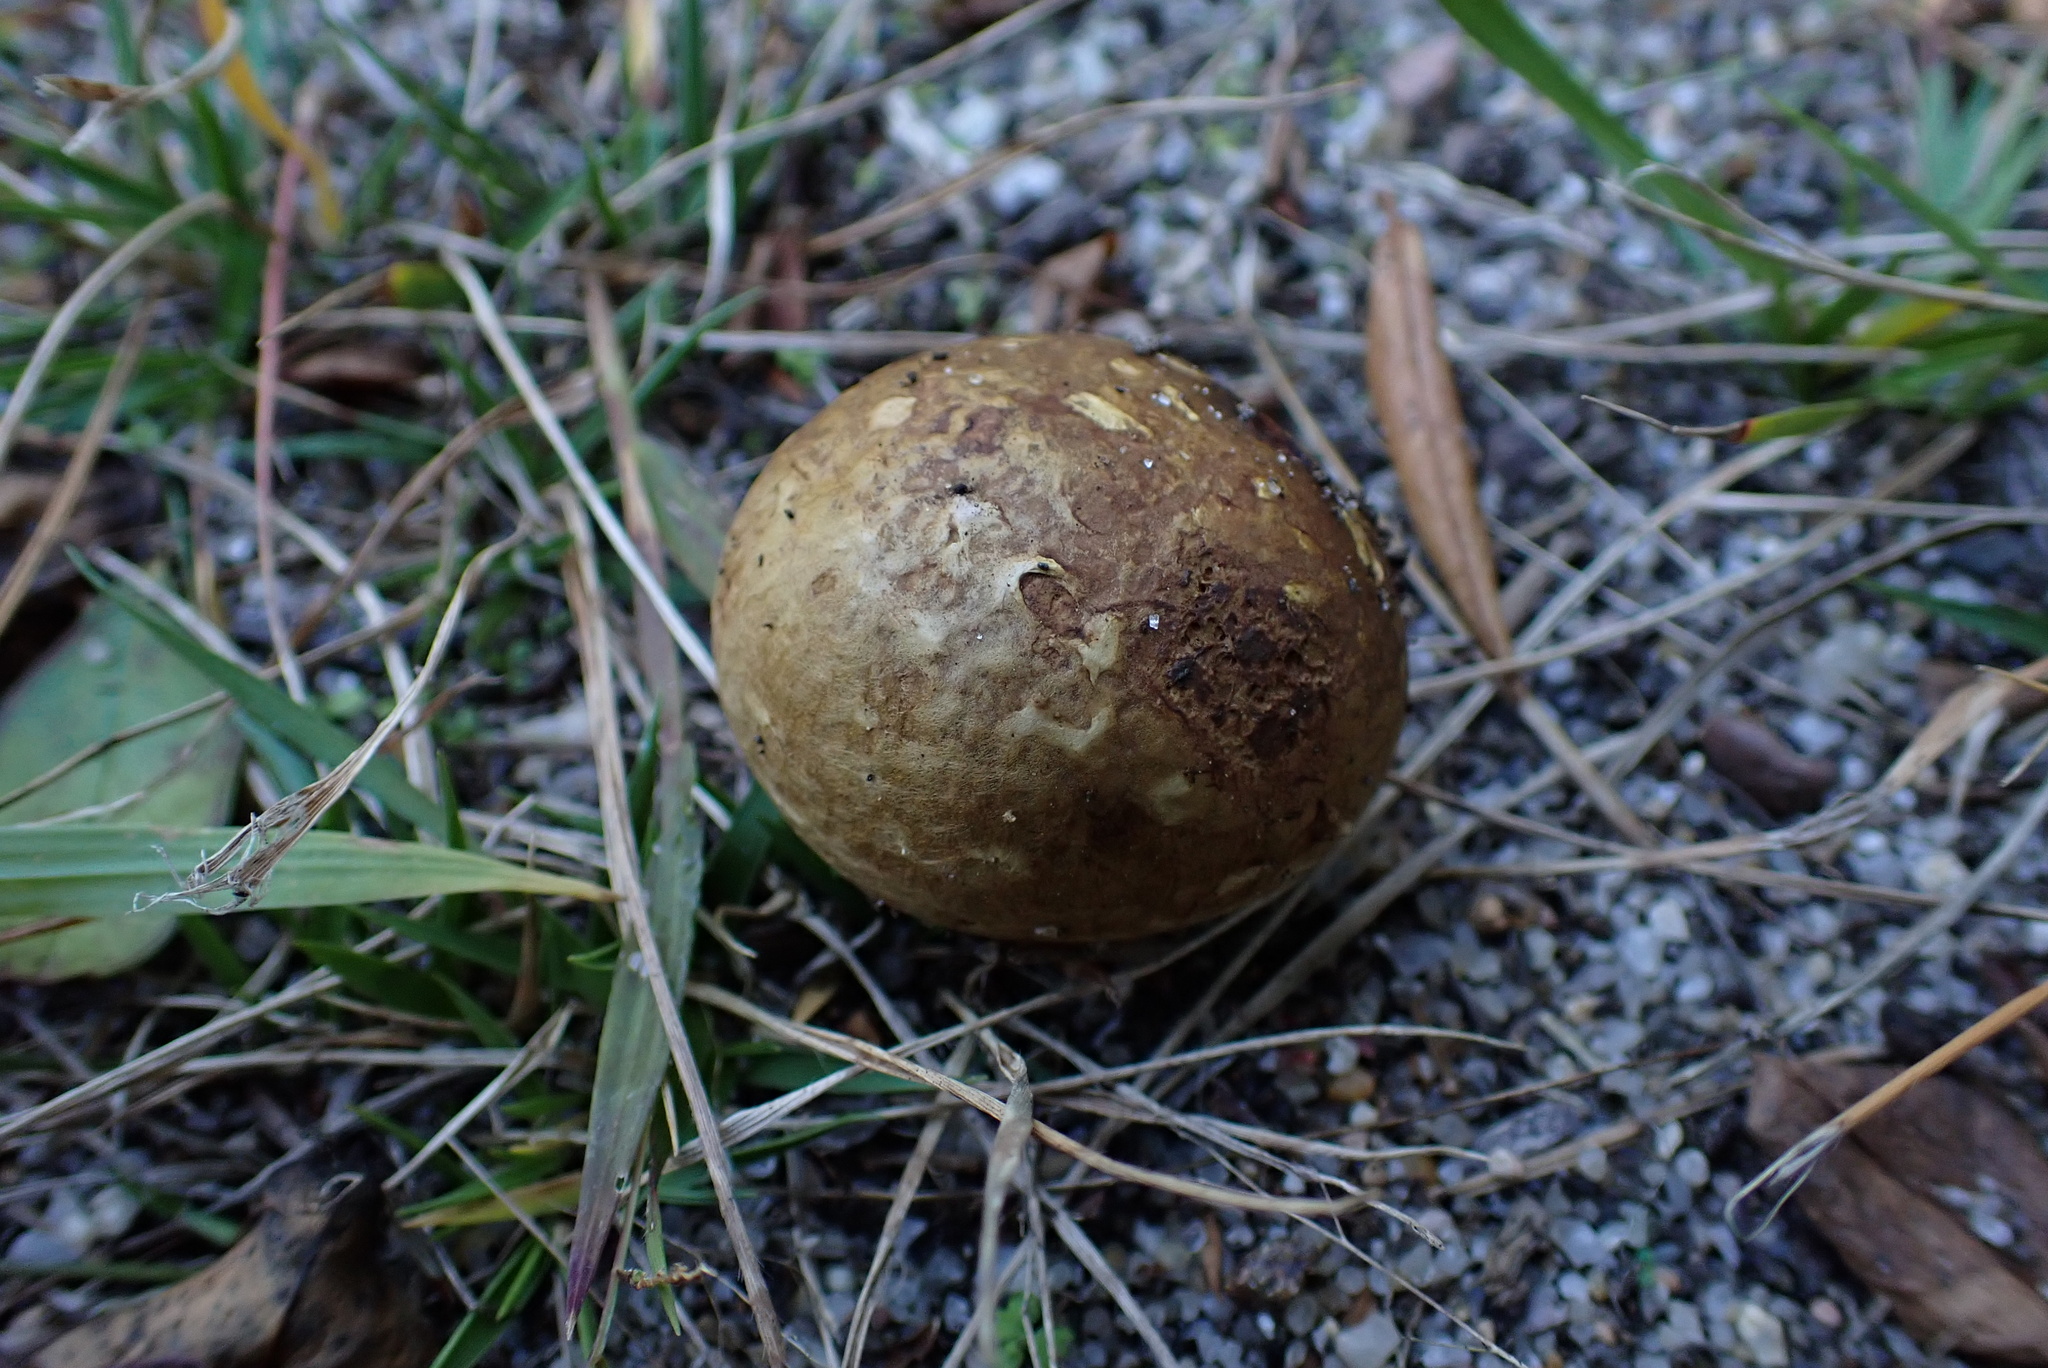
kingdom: Fungi
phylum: Basidiomycota
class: Agaricomycetes
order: Boletales
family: Rhizopogonaceae
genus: Rhizopogon
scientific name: Rhizopogon occidentalis
